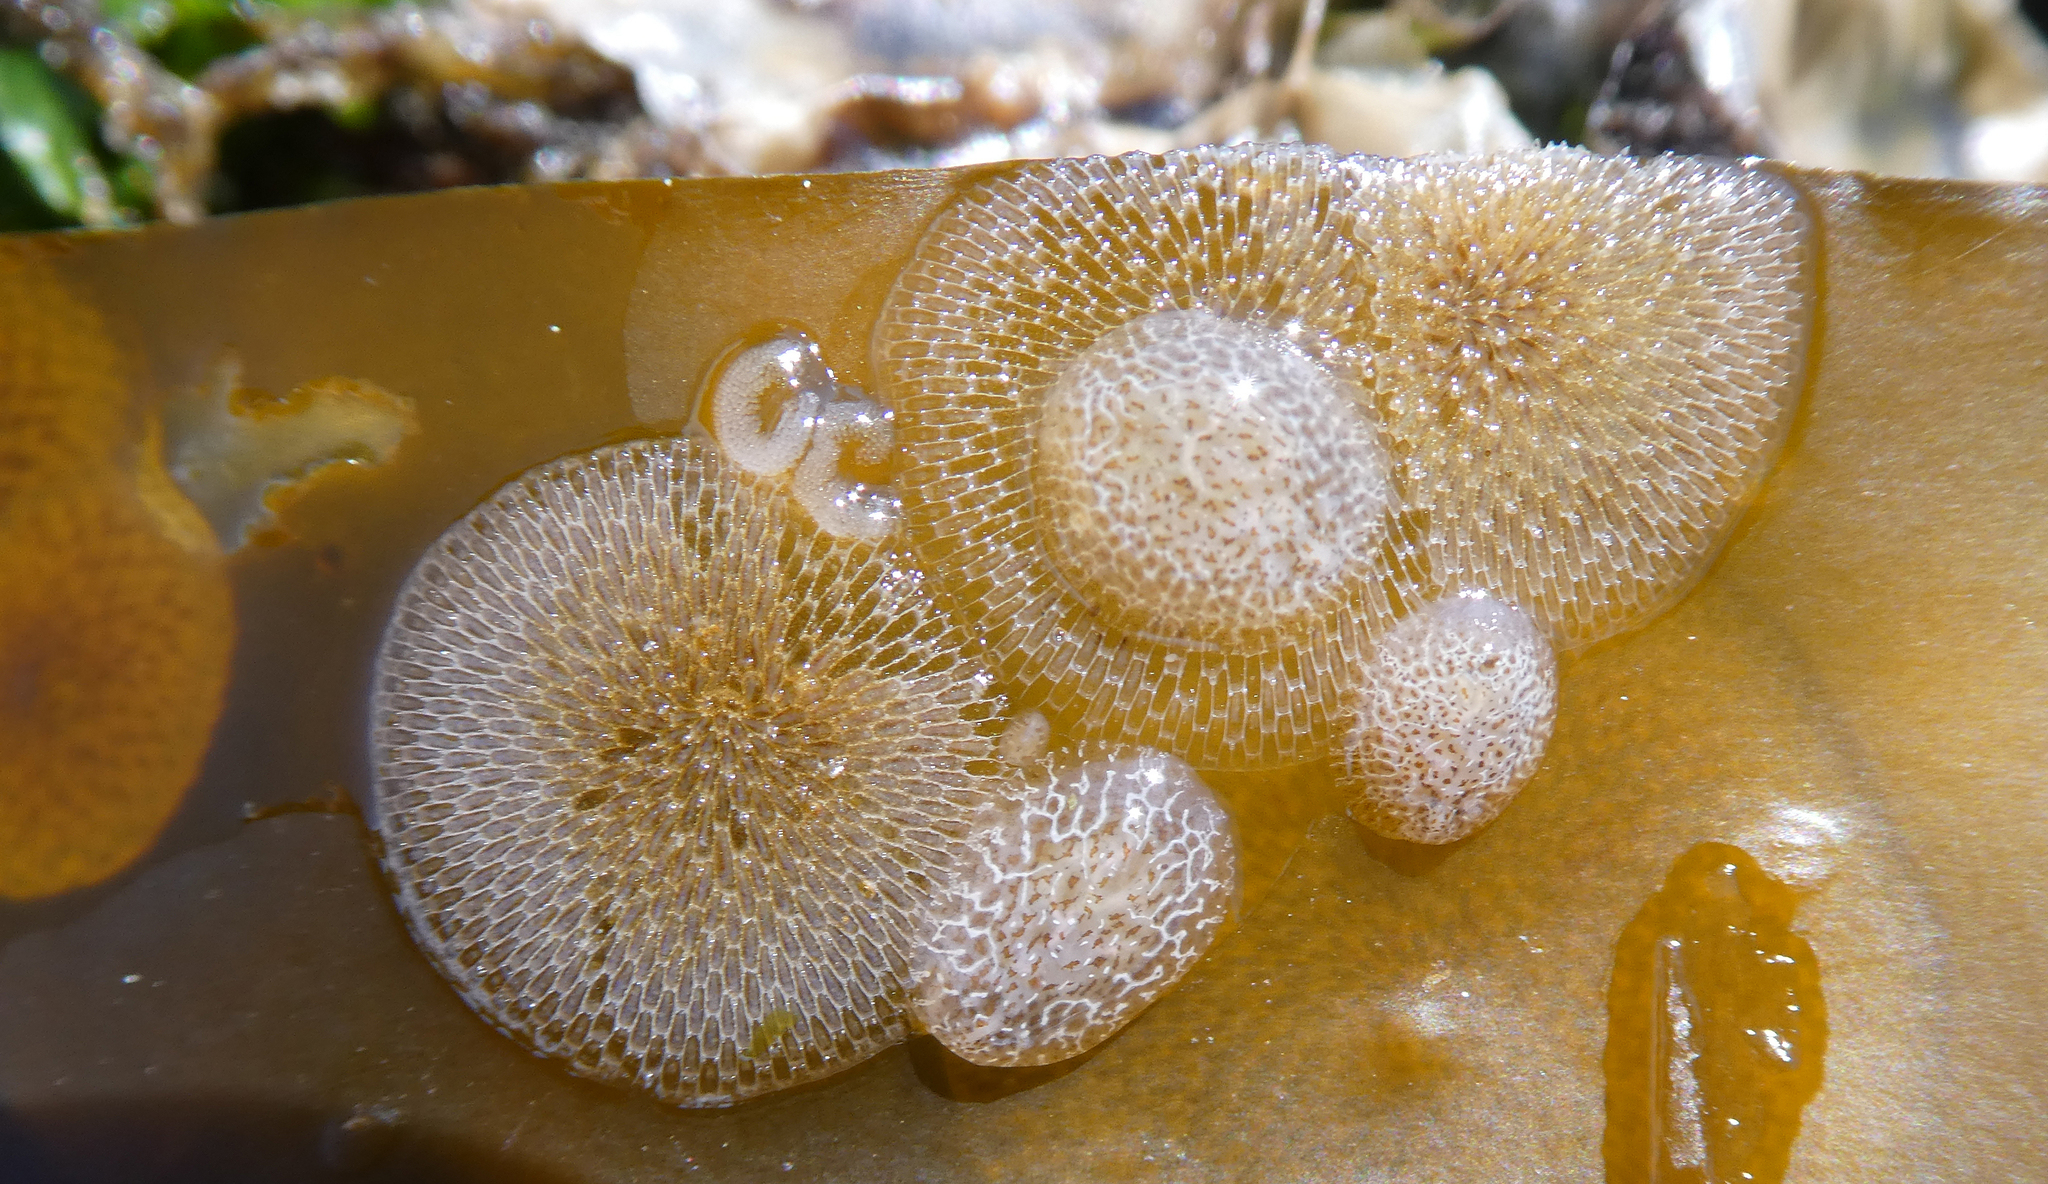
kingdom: Animalia
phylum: Mollusca
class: Gastropoda
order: Nudibranchia
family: Corambidae
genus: Corambe
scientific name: Corambe steinbergae
